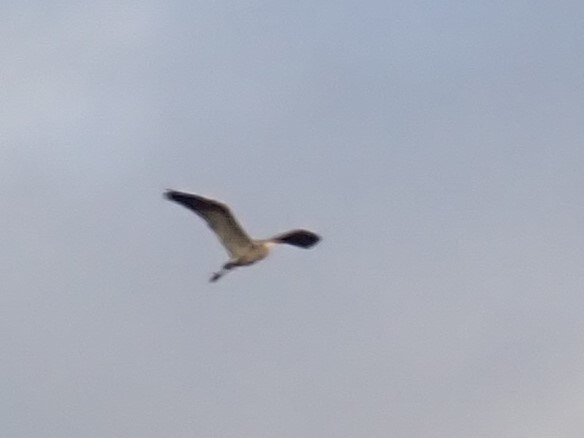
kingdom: Animalia
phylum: Chordata
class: Aves
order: Pelecaniformes
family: Ardeidae
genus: Ardea
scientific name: Ardea herodias
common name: Great blue heron
